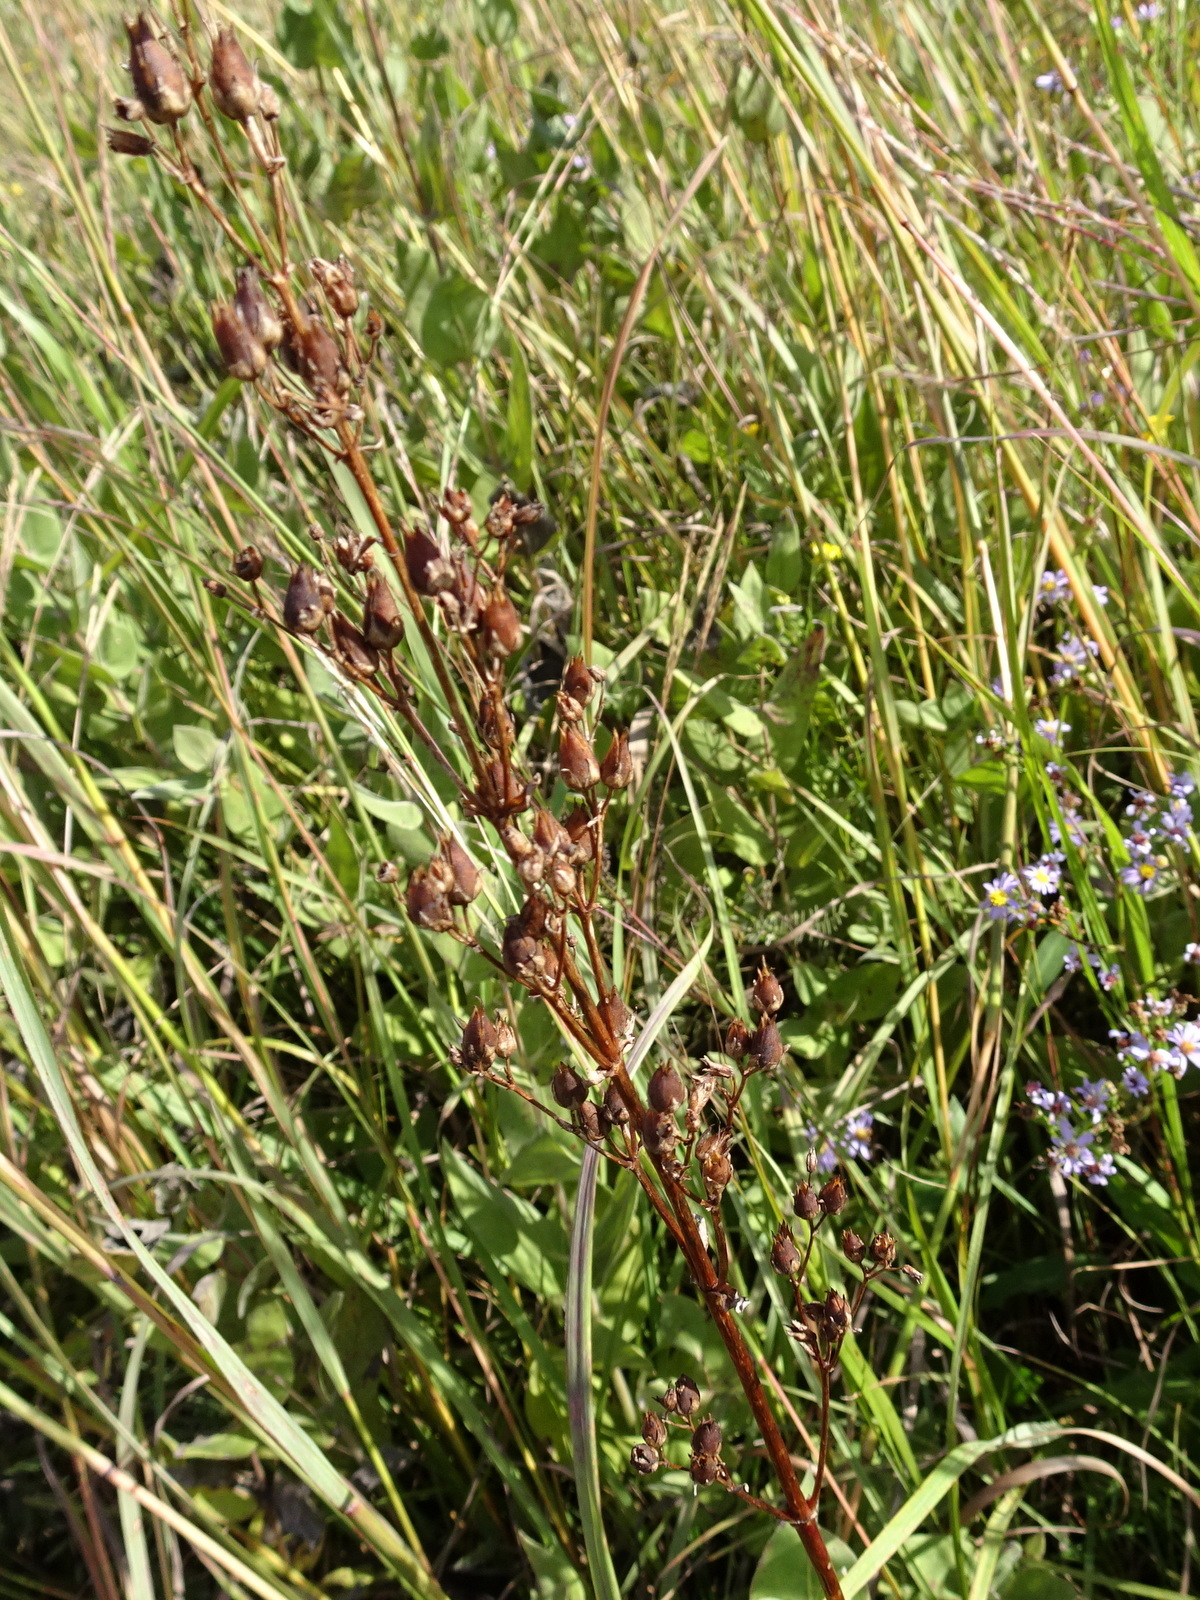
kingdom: Plantae
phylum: Tracheophyta
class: Magnoliopsida
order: Lamiales
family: Plantaginaceae
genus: Penstemon
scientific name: Penstemon tubaeflorus
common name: White wand beardtongue
